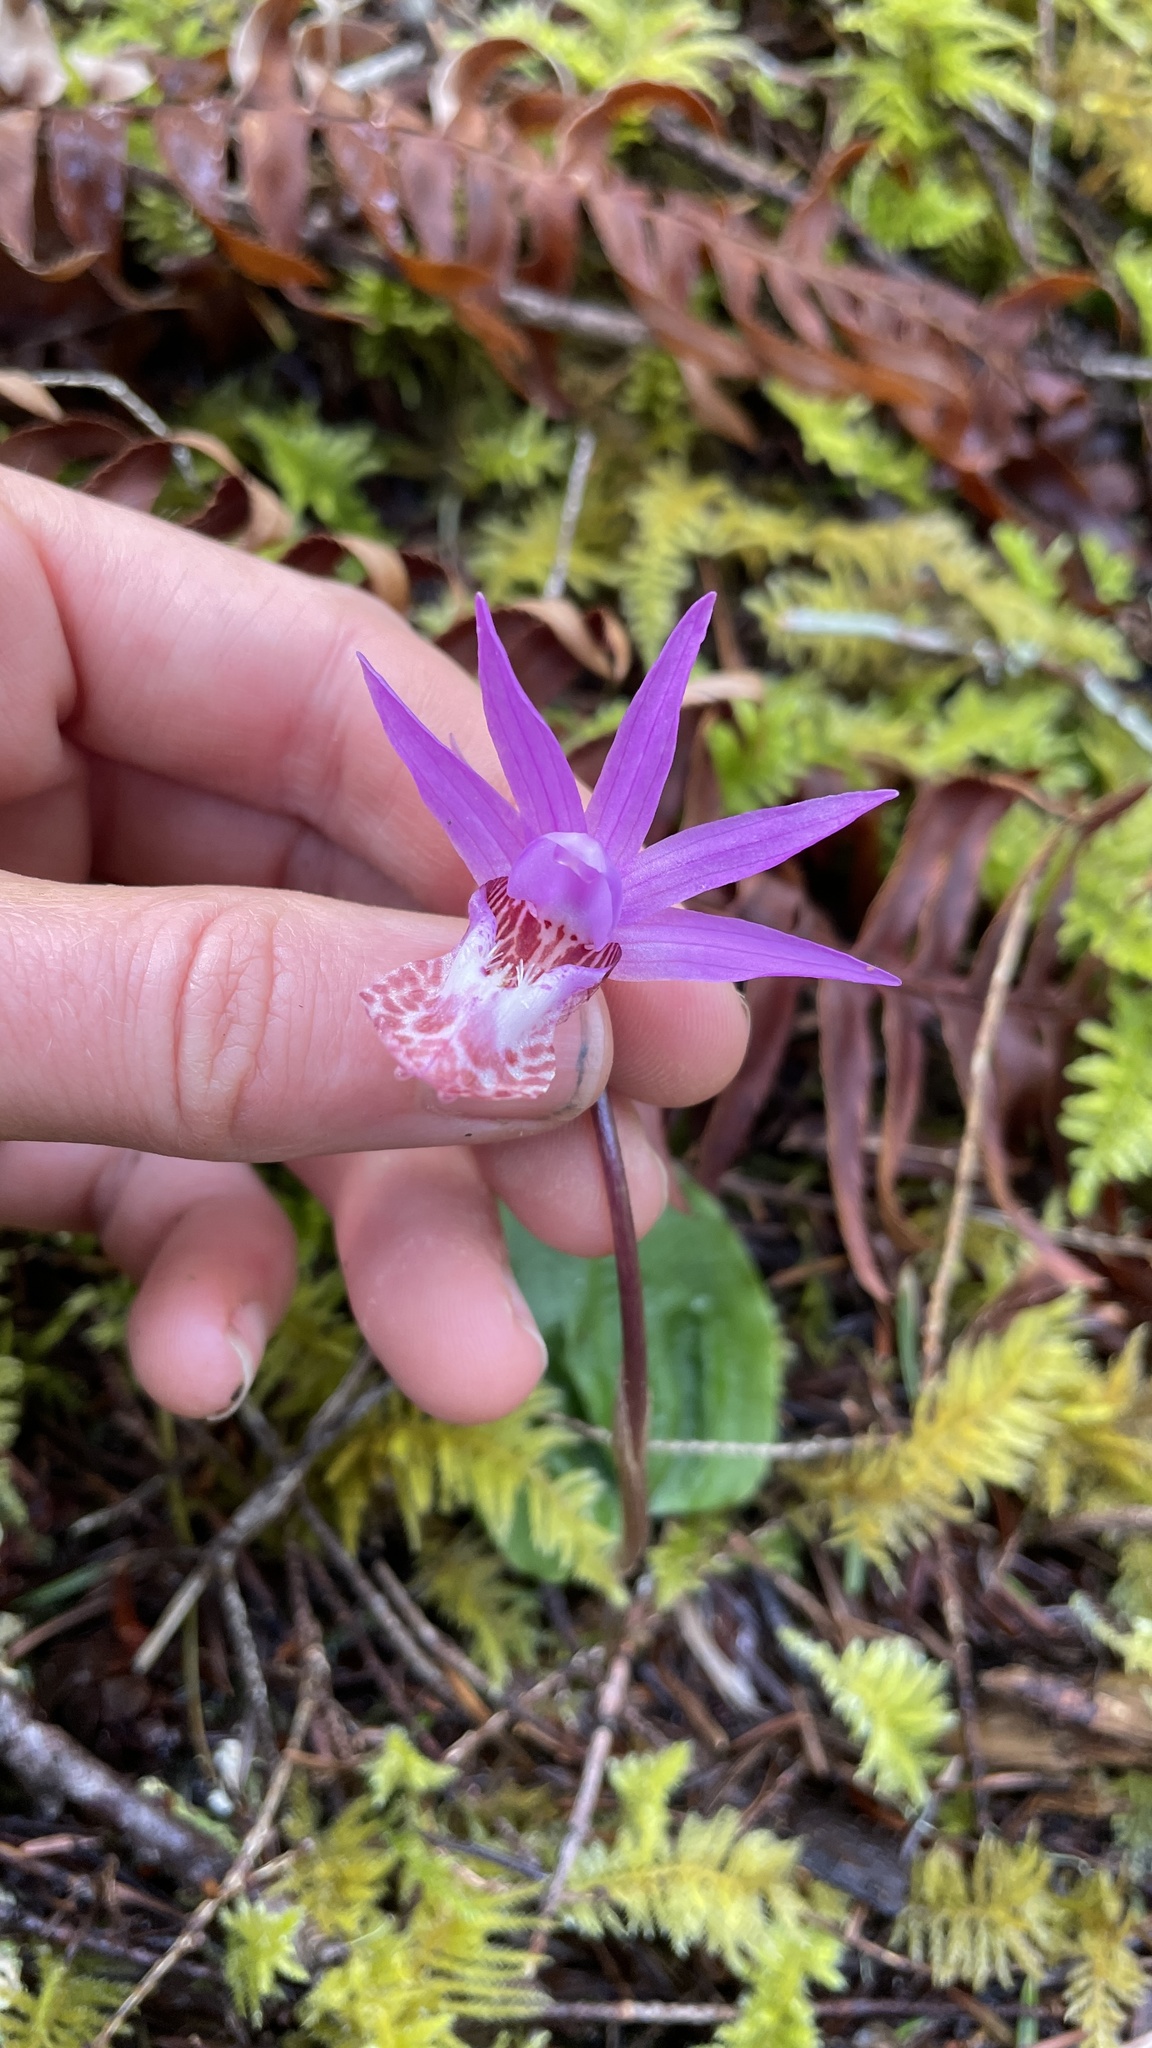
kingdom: Plantae
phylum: Tracheophyta
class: Liliopsida
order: Asparagales
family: Orchidaceae
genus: Calypso
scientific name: Calypso bulbosa
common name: Calypso
